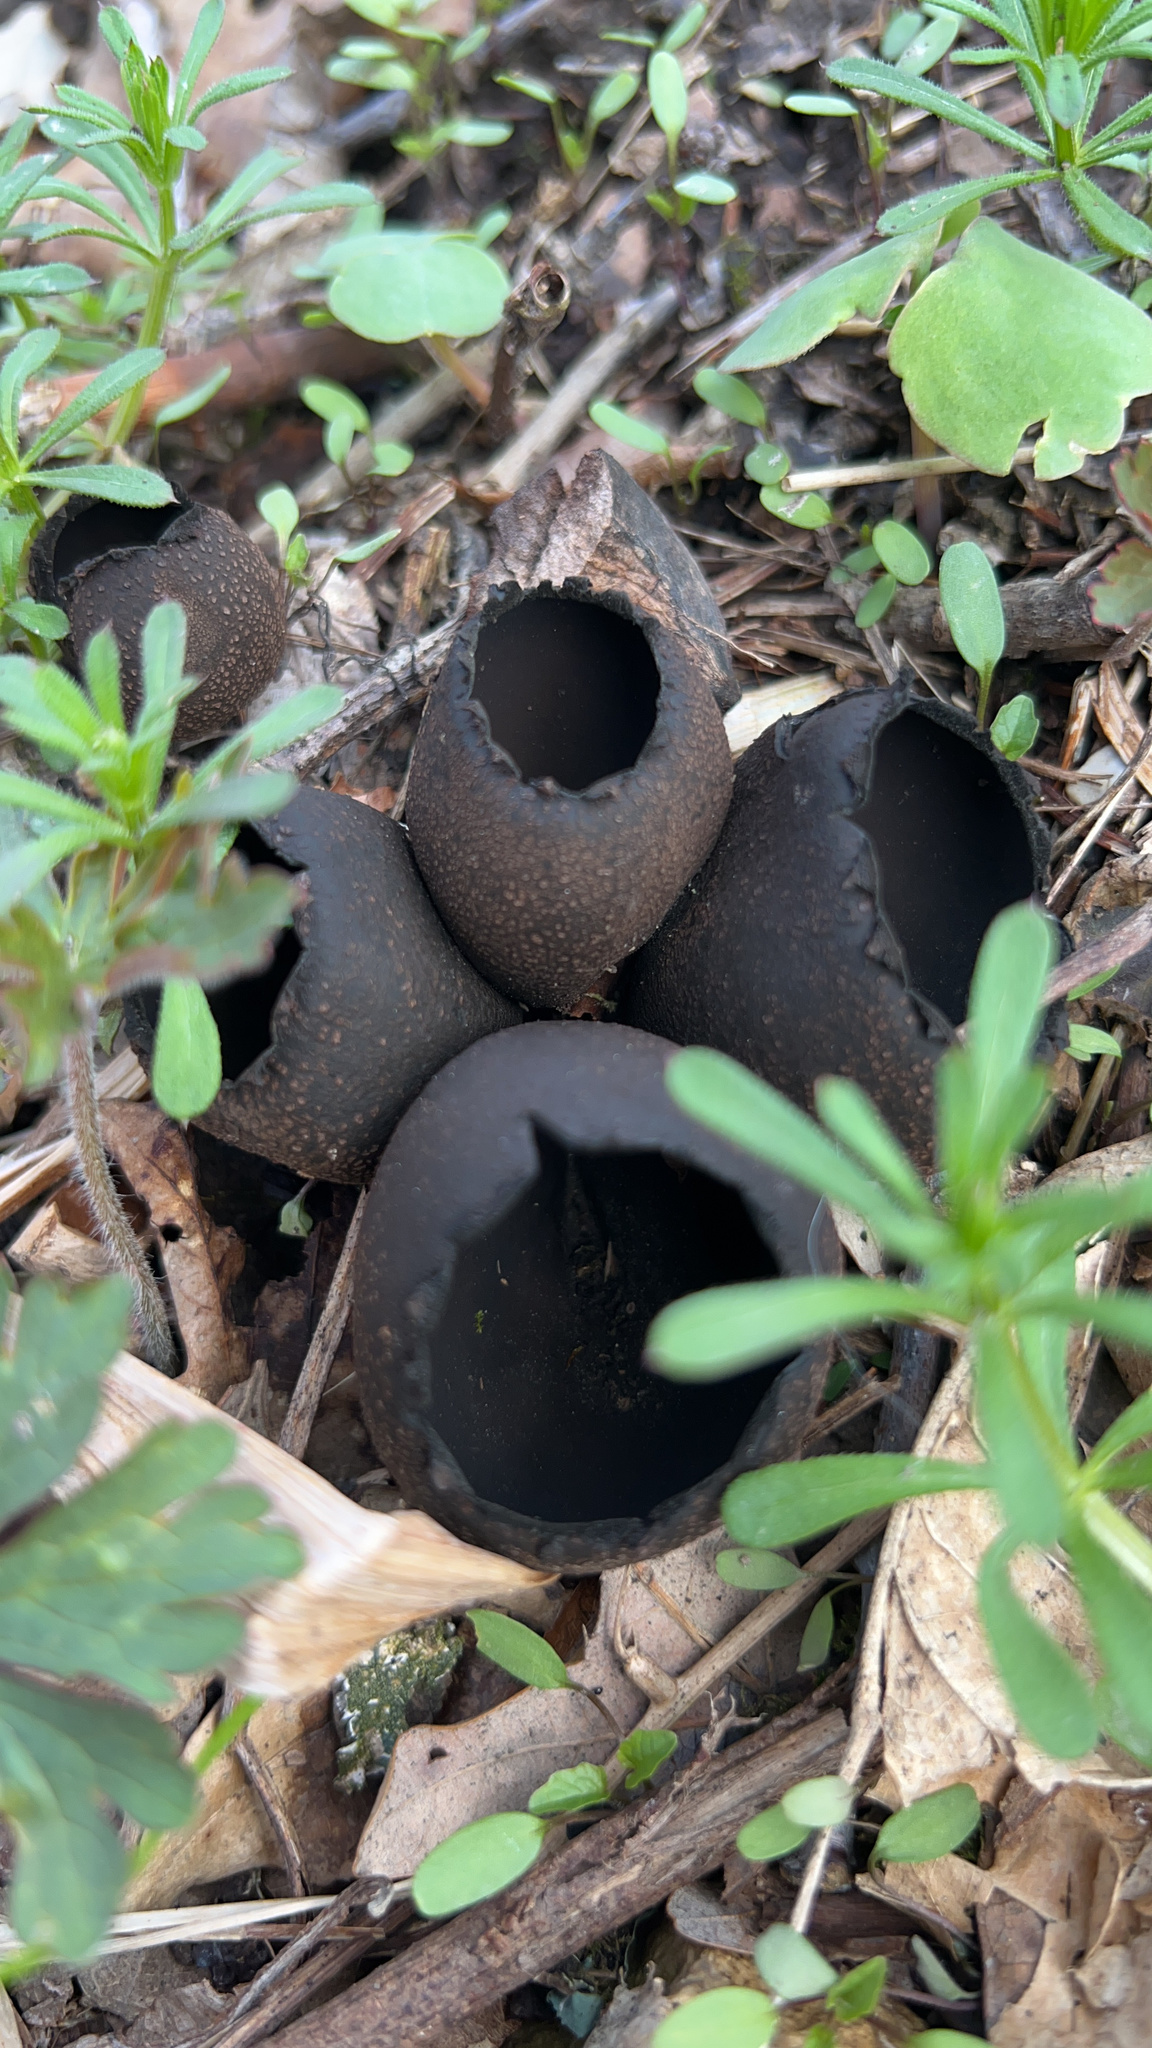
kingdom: Fungi
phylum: Ascomycota
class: Pezizomycetes
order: Pezizales
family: Sarcosomataceae
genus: Urnula
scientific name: Urnula craterium
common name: Devil's urn
